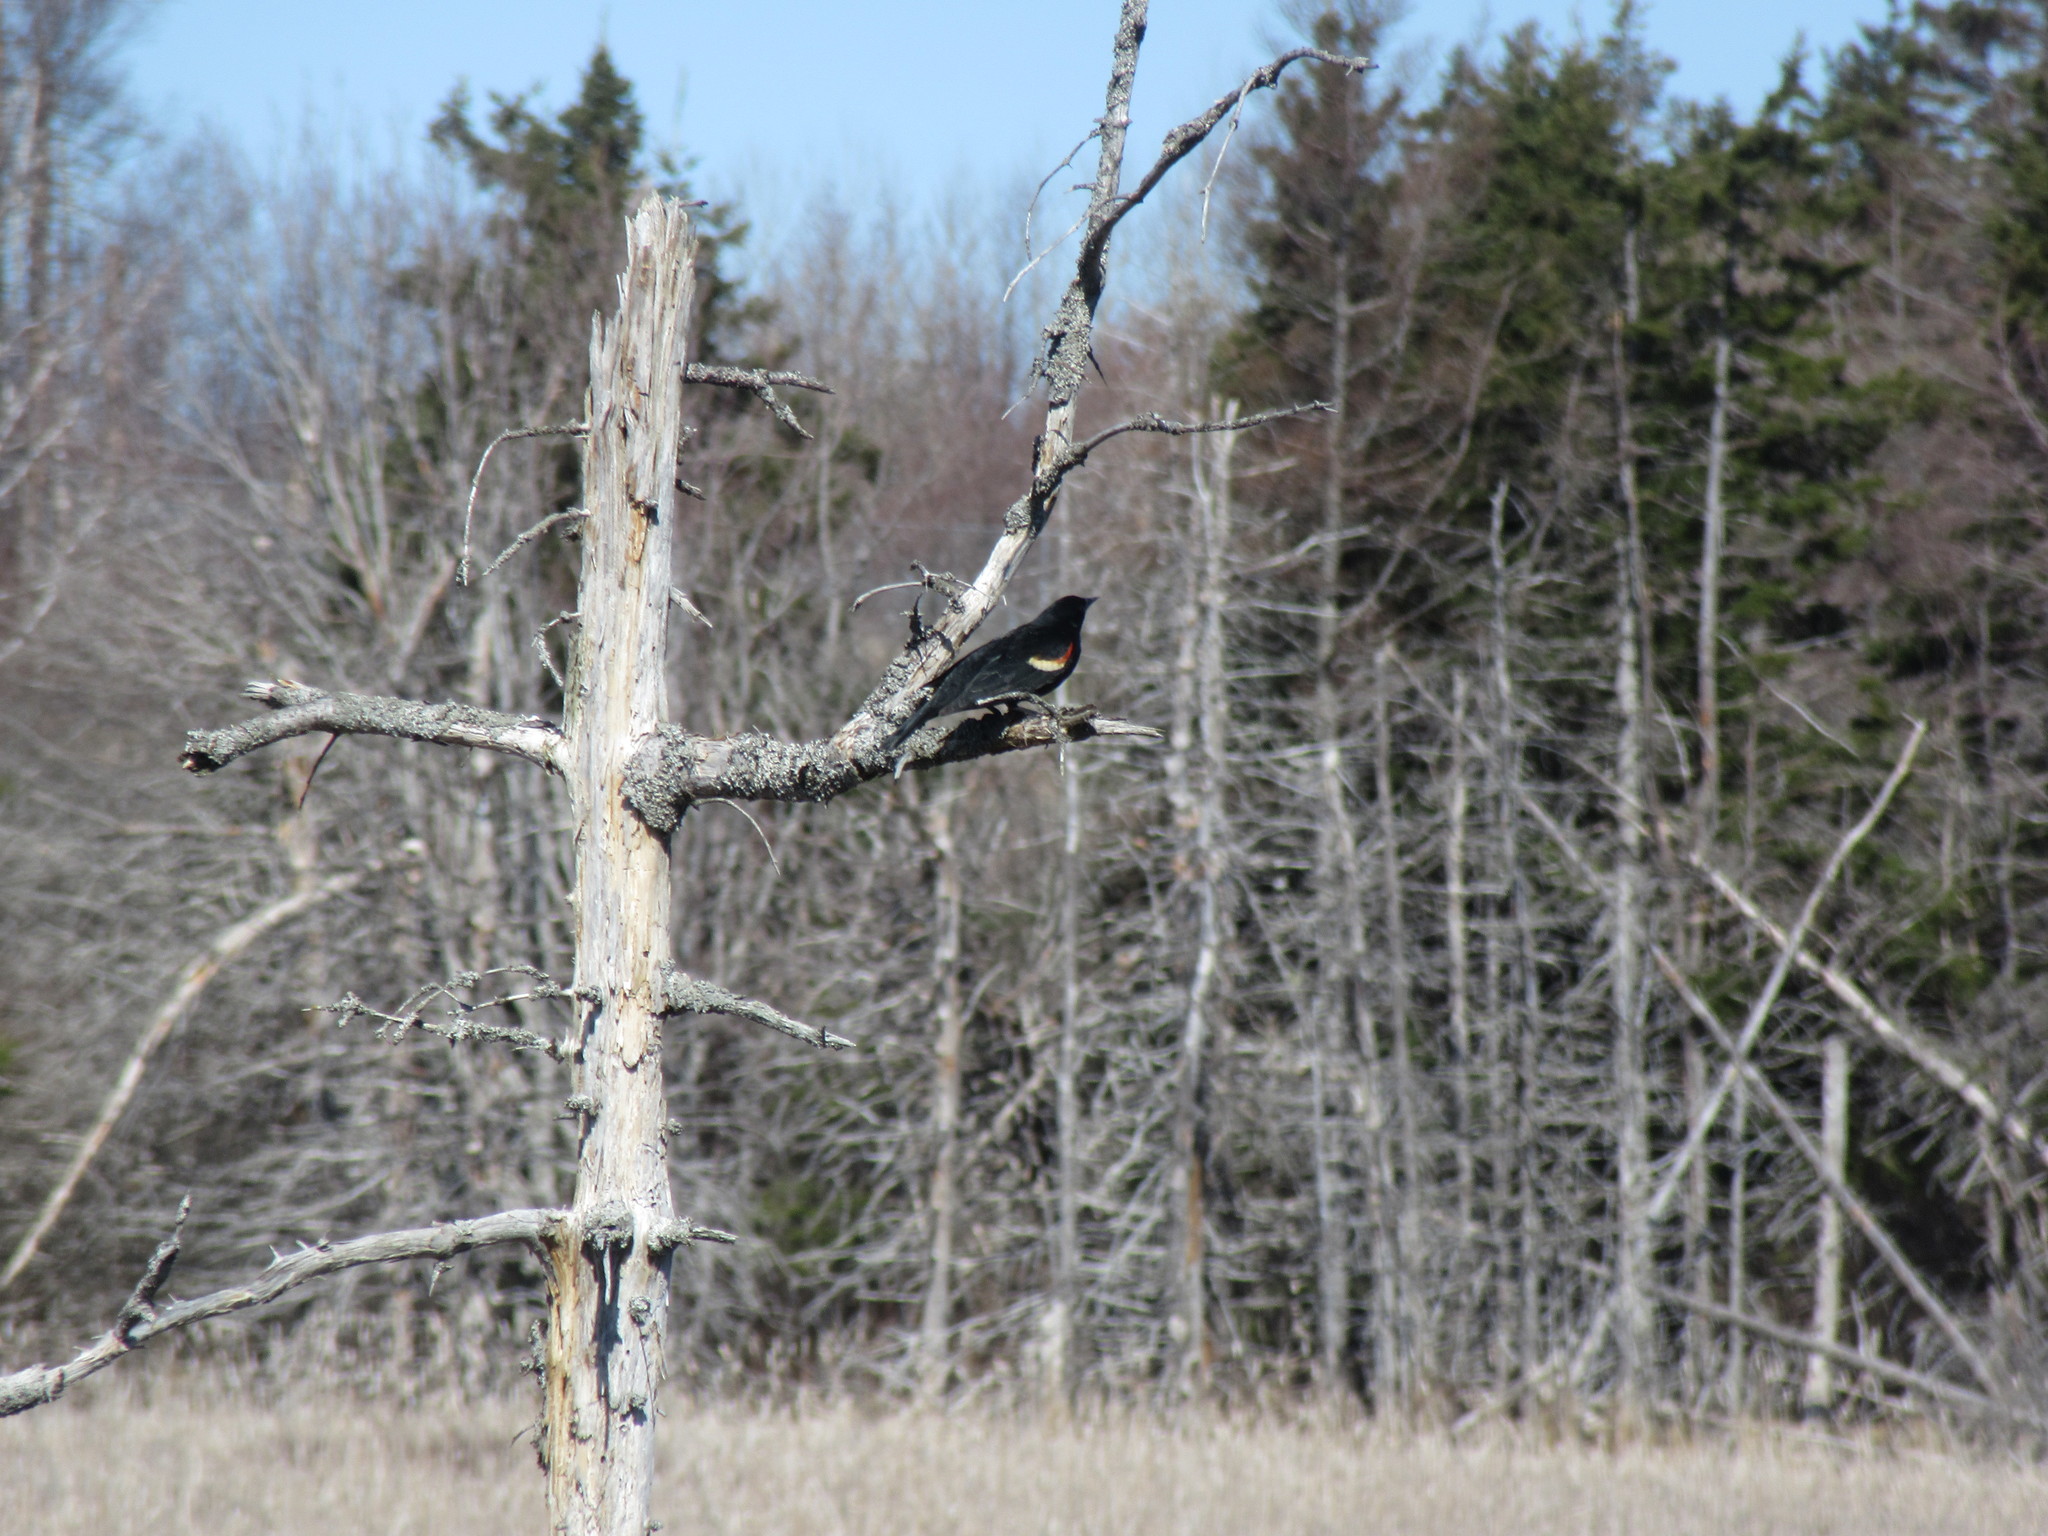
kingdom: Animalia
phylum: Chordata
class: Aves
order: Passeriformes
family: Icteridae
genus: Agelaius
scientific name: Agelaius phoeniceus
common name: Red-winged blackbird
